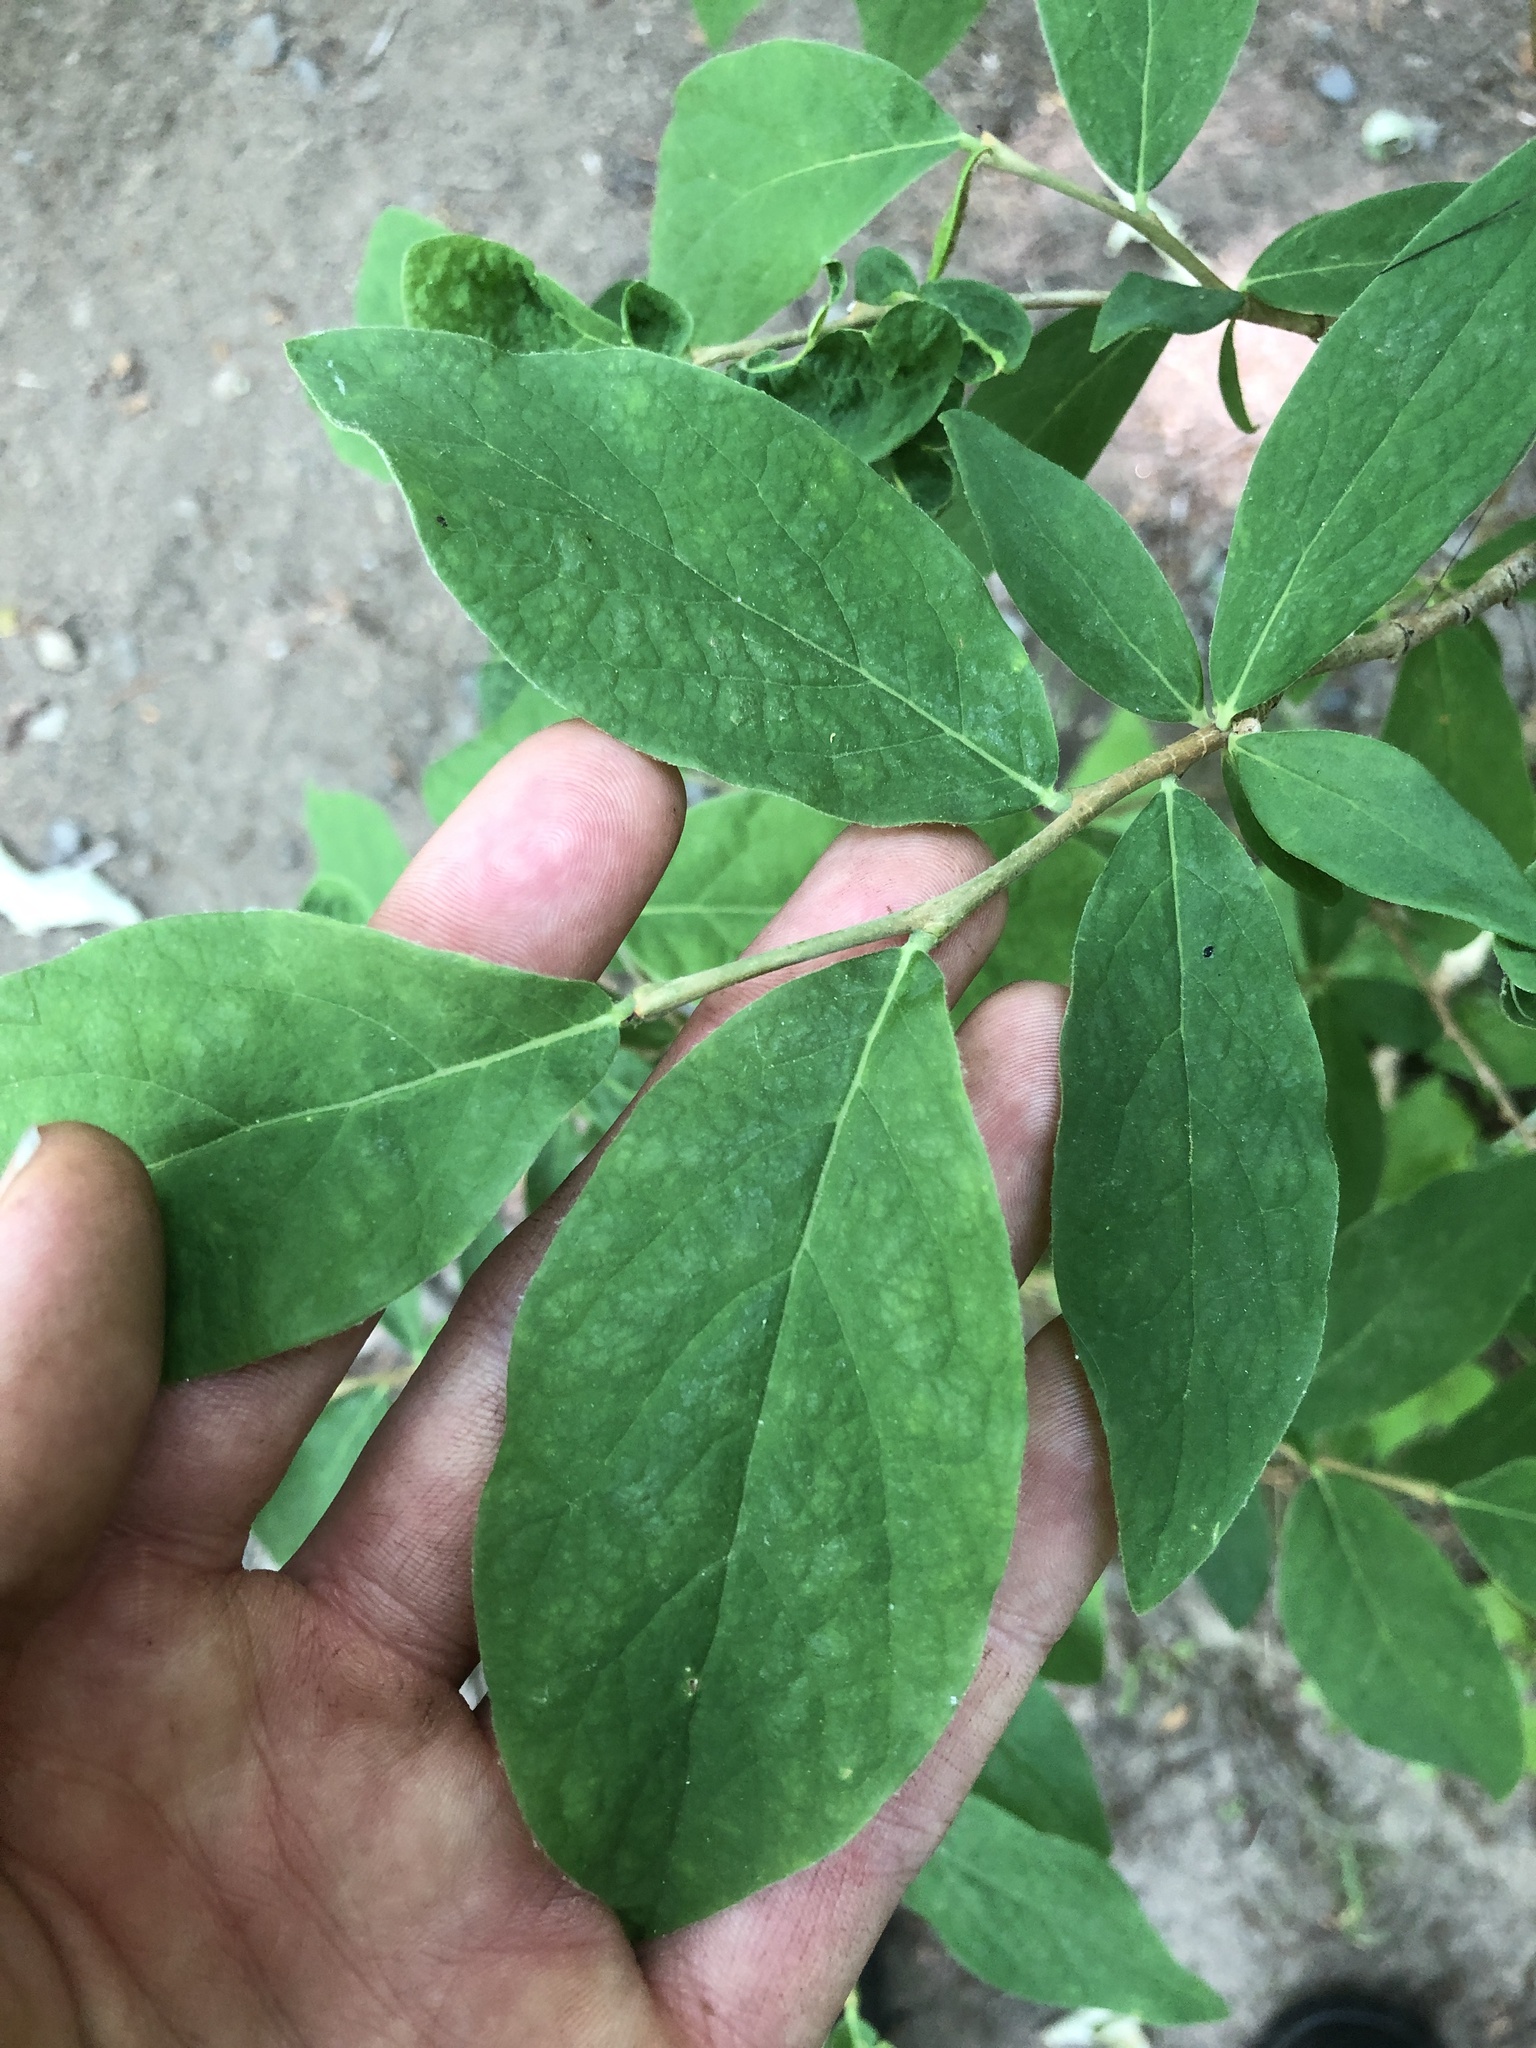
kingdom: Plantae
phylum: Tracheophyta
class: Magnoliopsida
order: Malvales
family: Thymelaeaceae
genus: Dirca
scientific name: Dirca palustris
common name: Leatherwood
